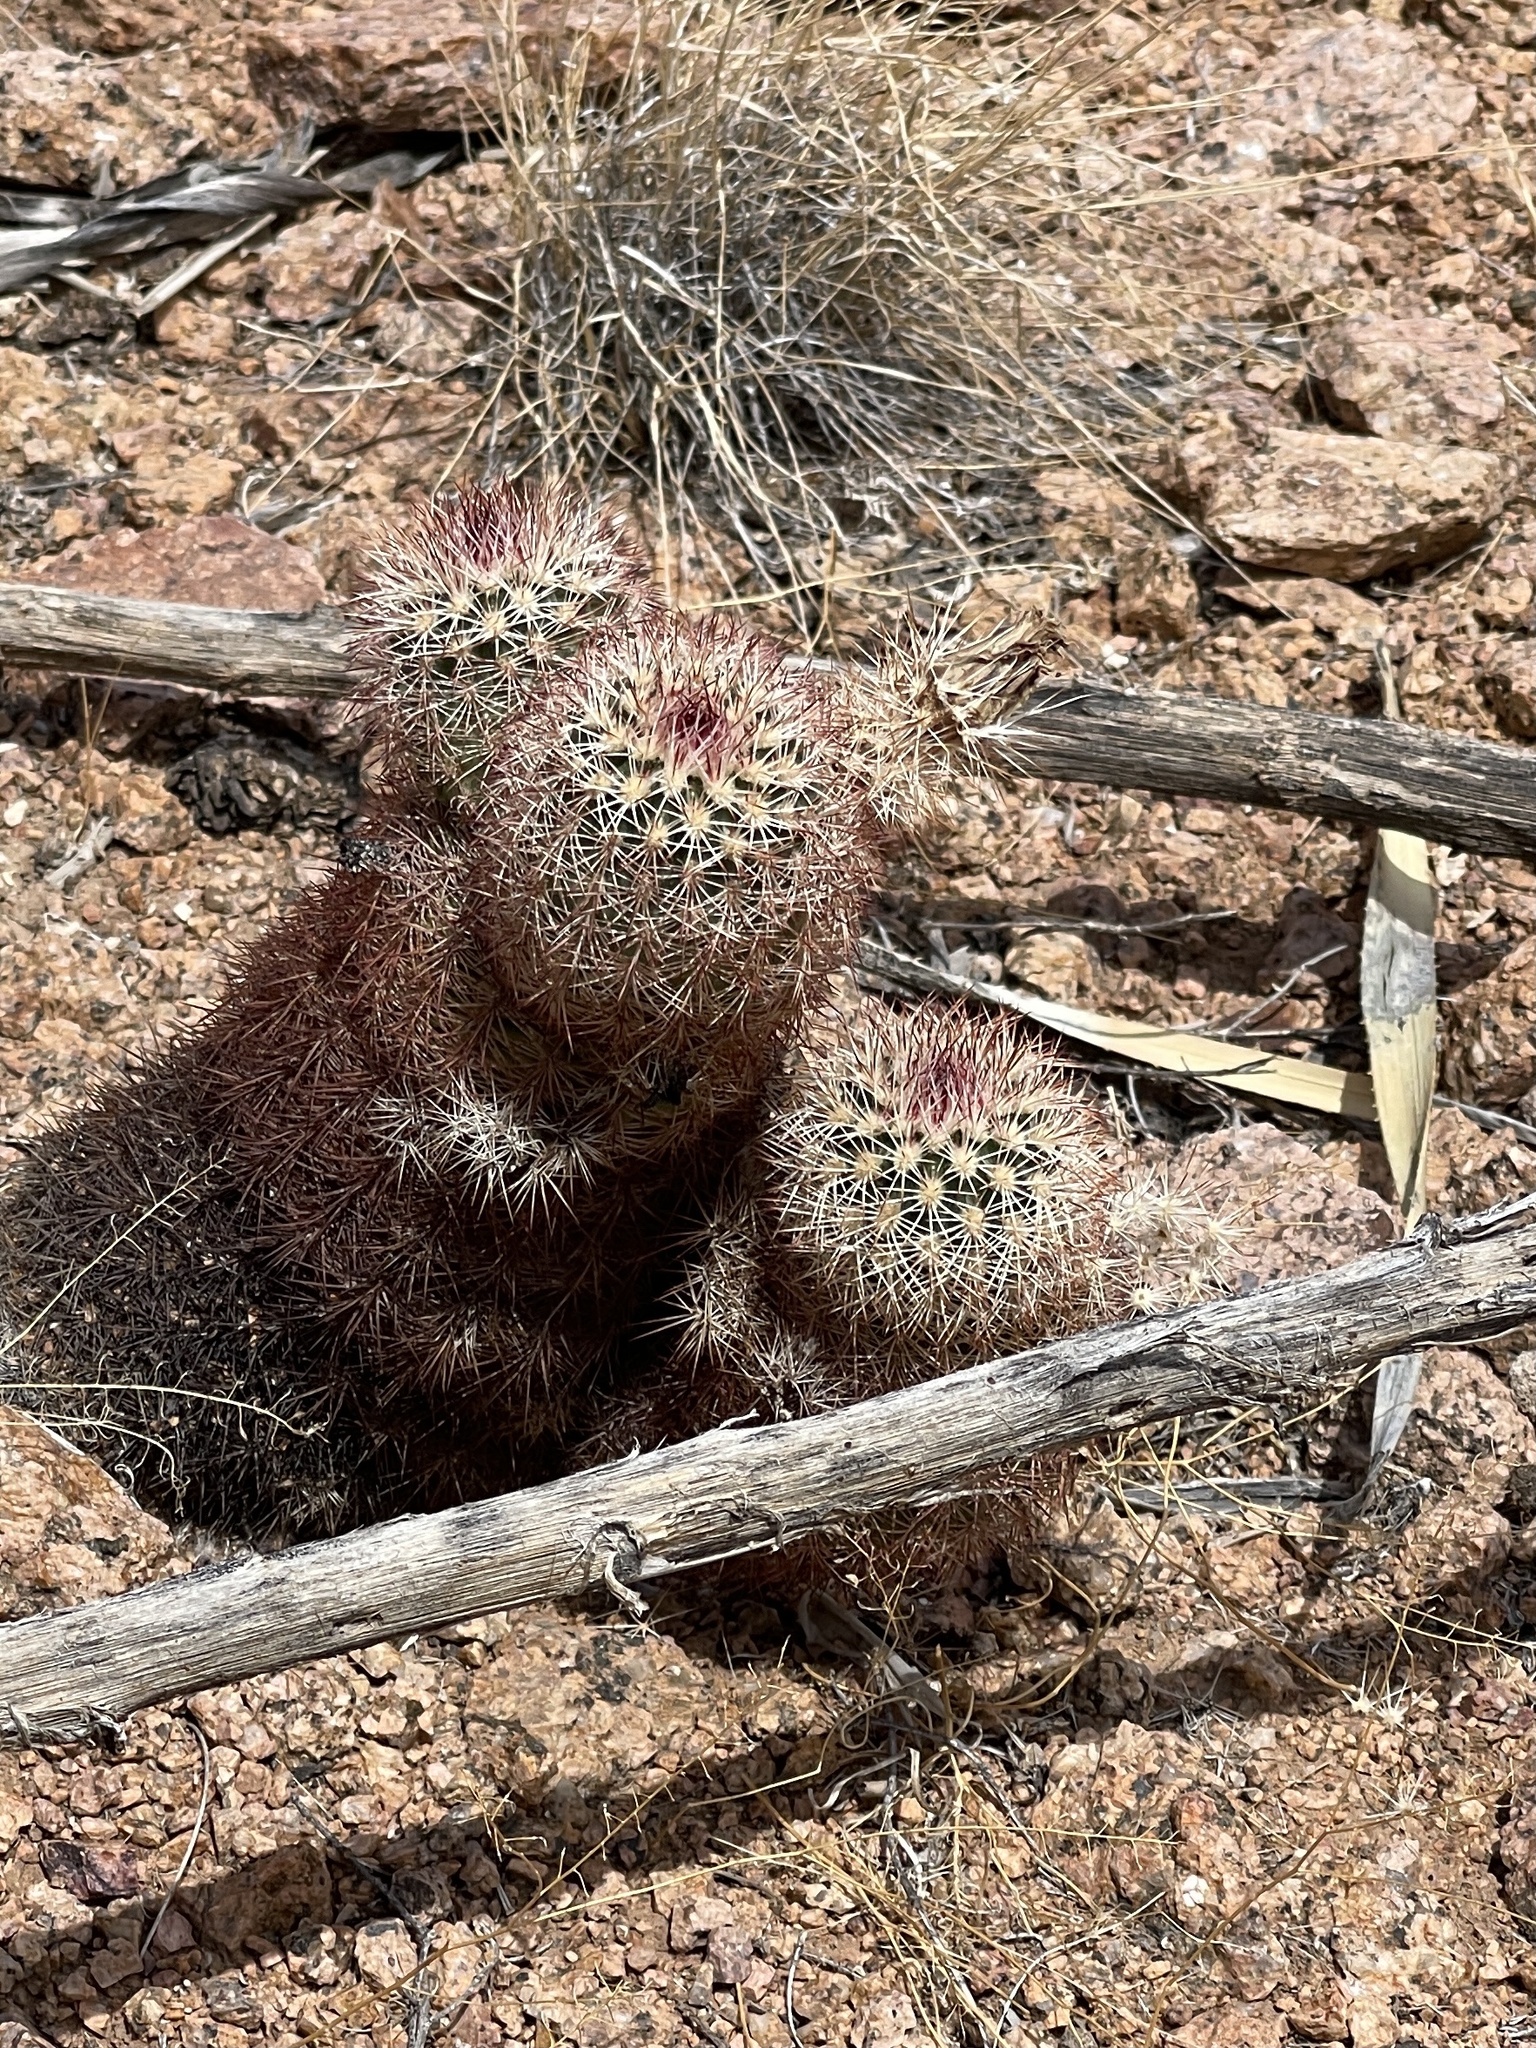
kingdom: Plantae
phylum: Tracheophyta
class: Magnoliopsida
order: Caryophyllales
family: Cactaceae
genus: Echinocereus
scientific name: Echinocereus dasyacanthus
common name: Spiny hedgehog cactus
